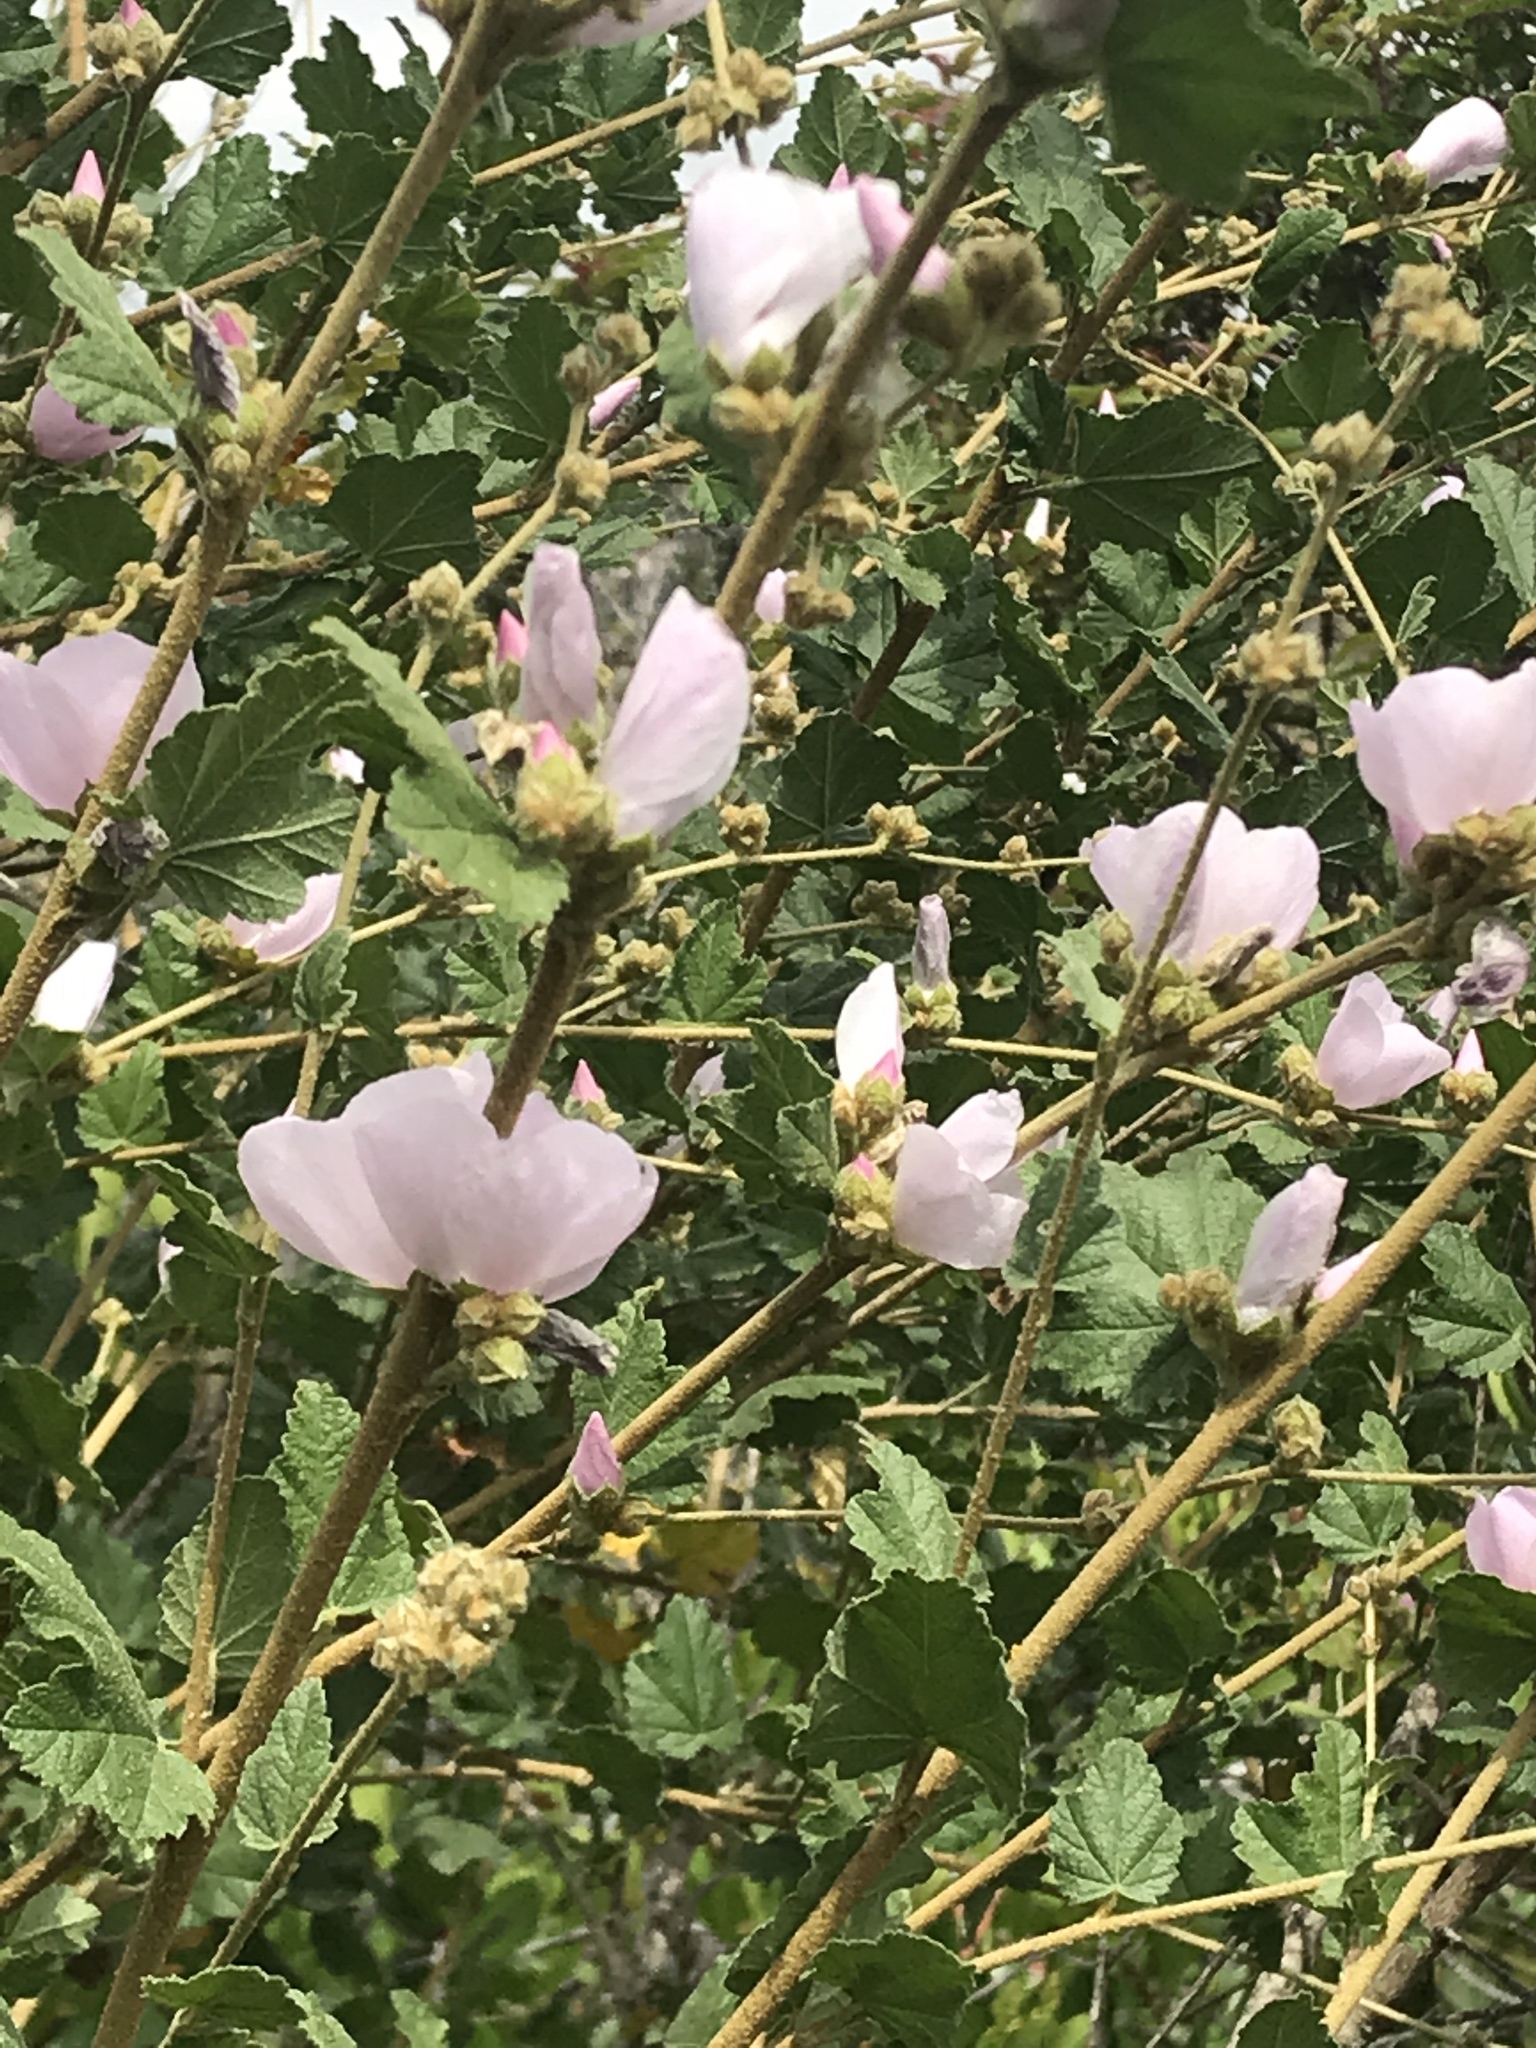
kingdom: Plantae
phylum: Tracheophyta
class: Magnoliopsida
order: Malvales
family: Malvaceae
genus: Malacothamnus
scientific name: Malacothamnus fasciculatus
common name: Sant cruz island bush-mallow
